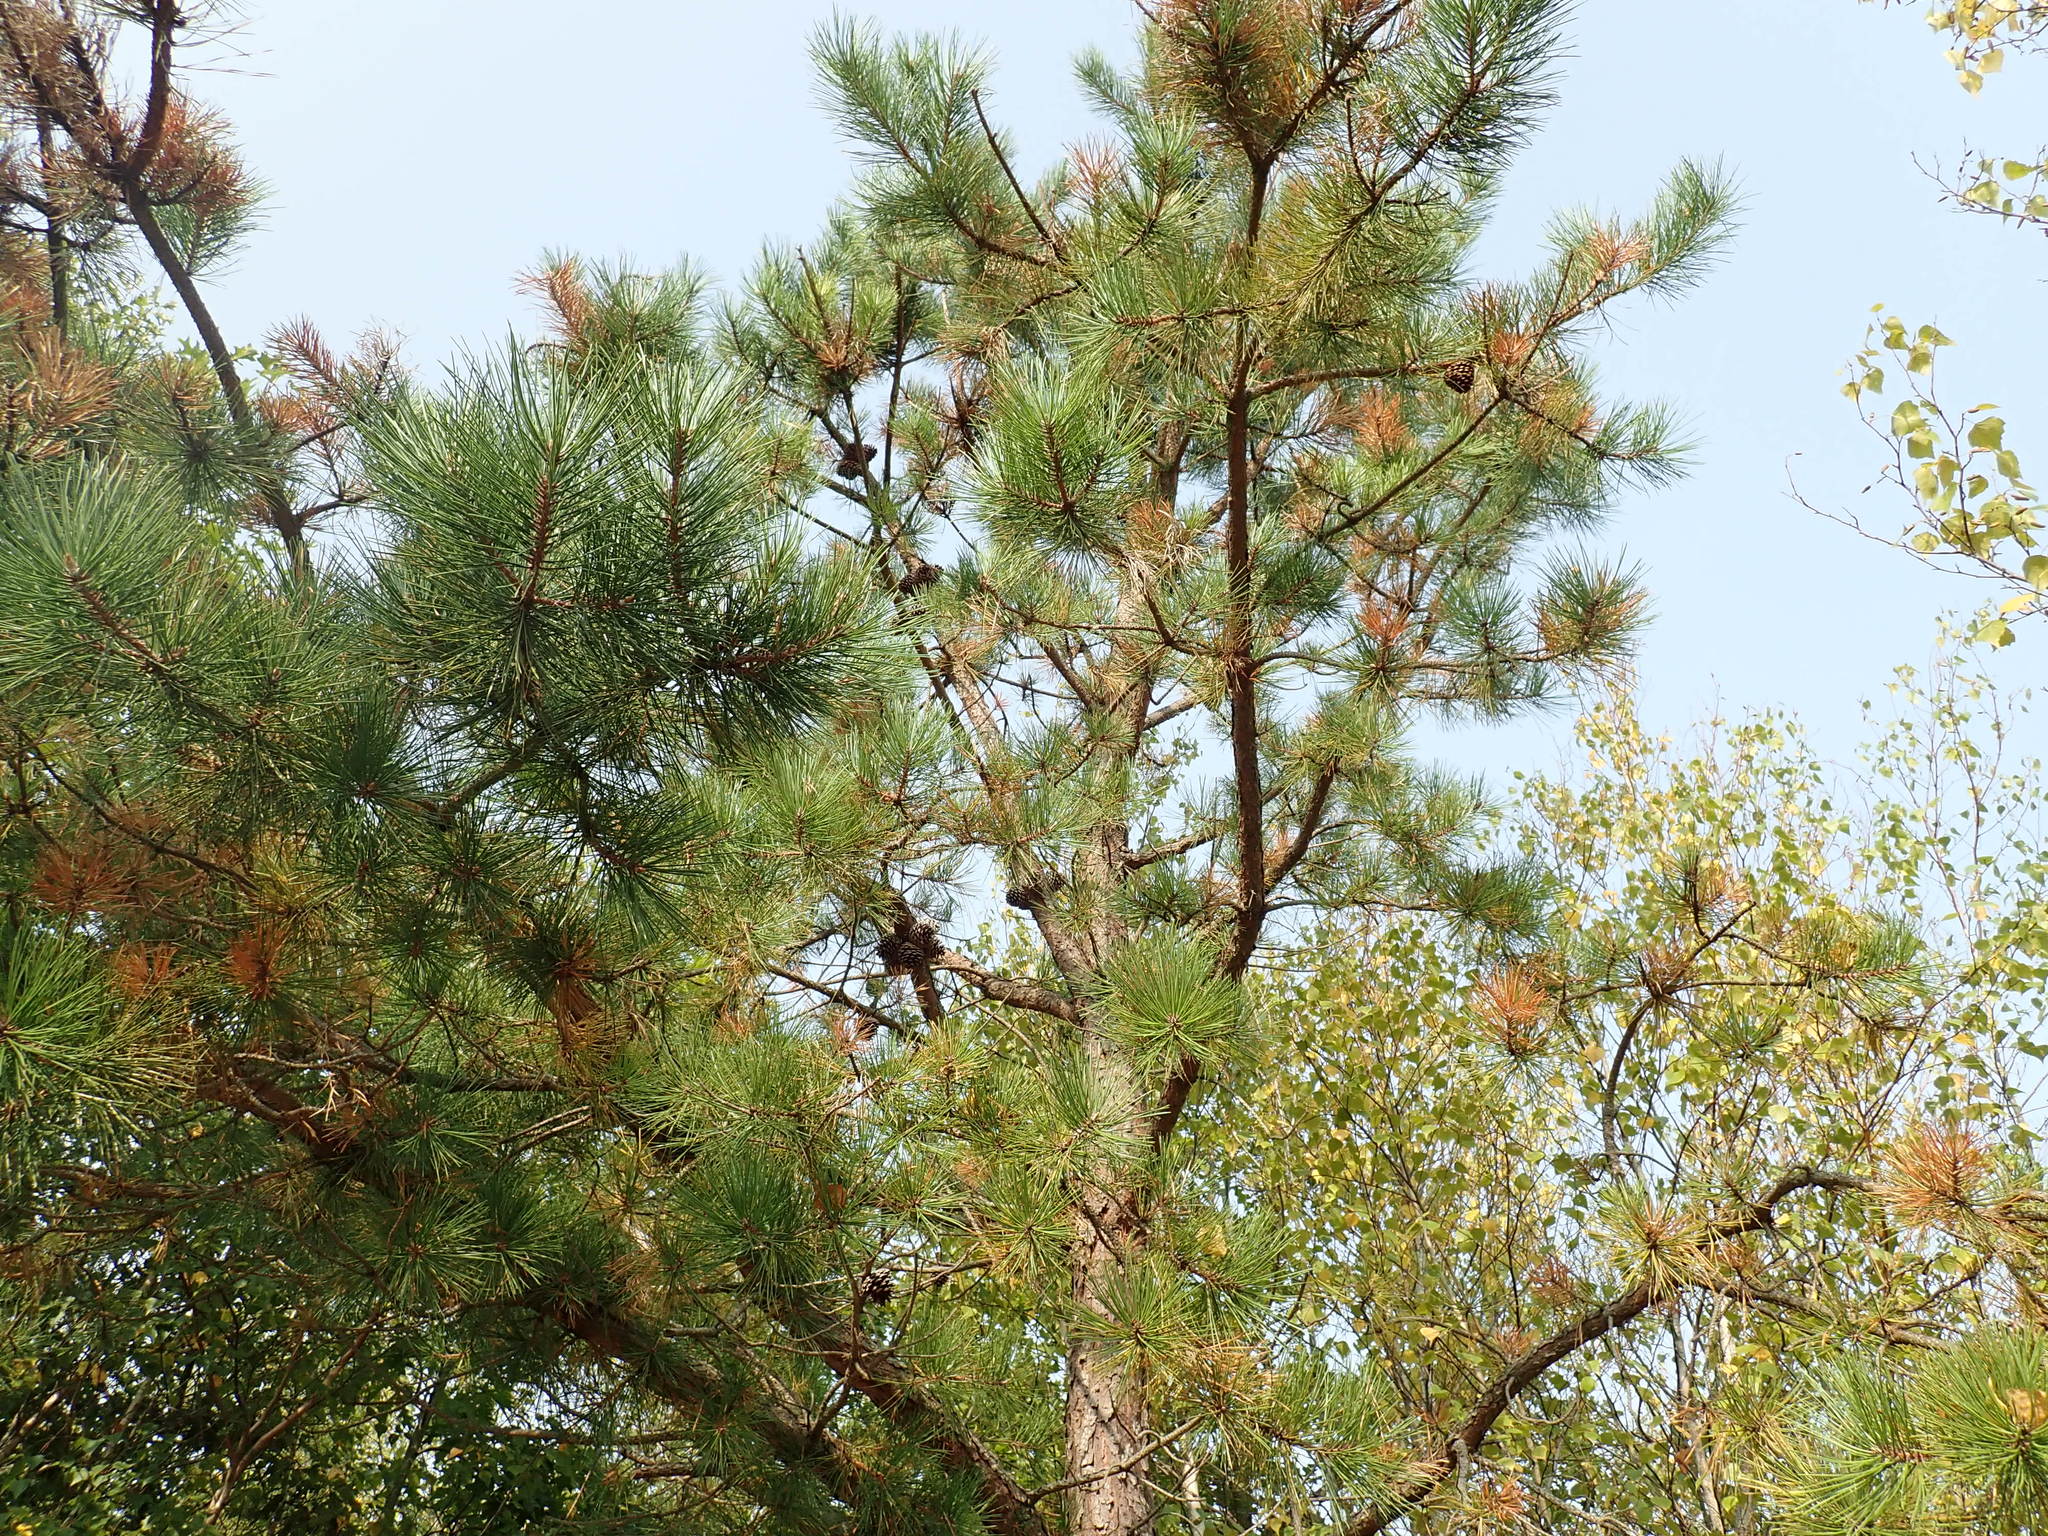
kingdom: Plantae
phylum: Tracheophyta
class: Pinopsida
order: Pinales
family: Pinaceae
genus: Pinus
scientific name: Pinus rigida
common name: Pitch pine
